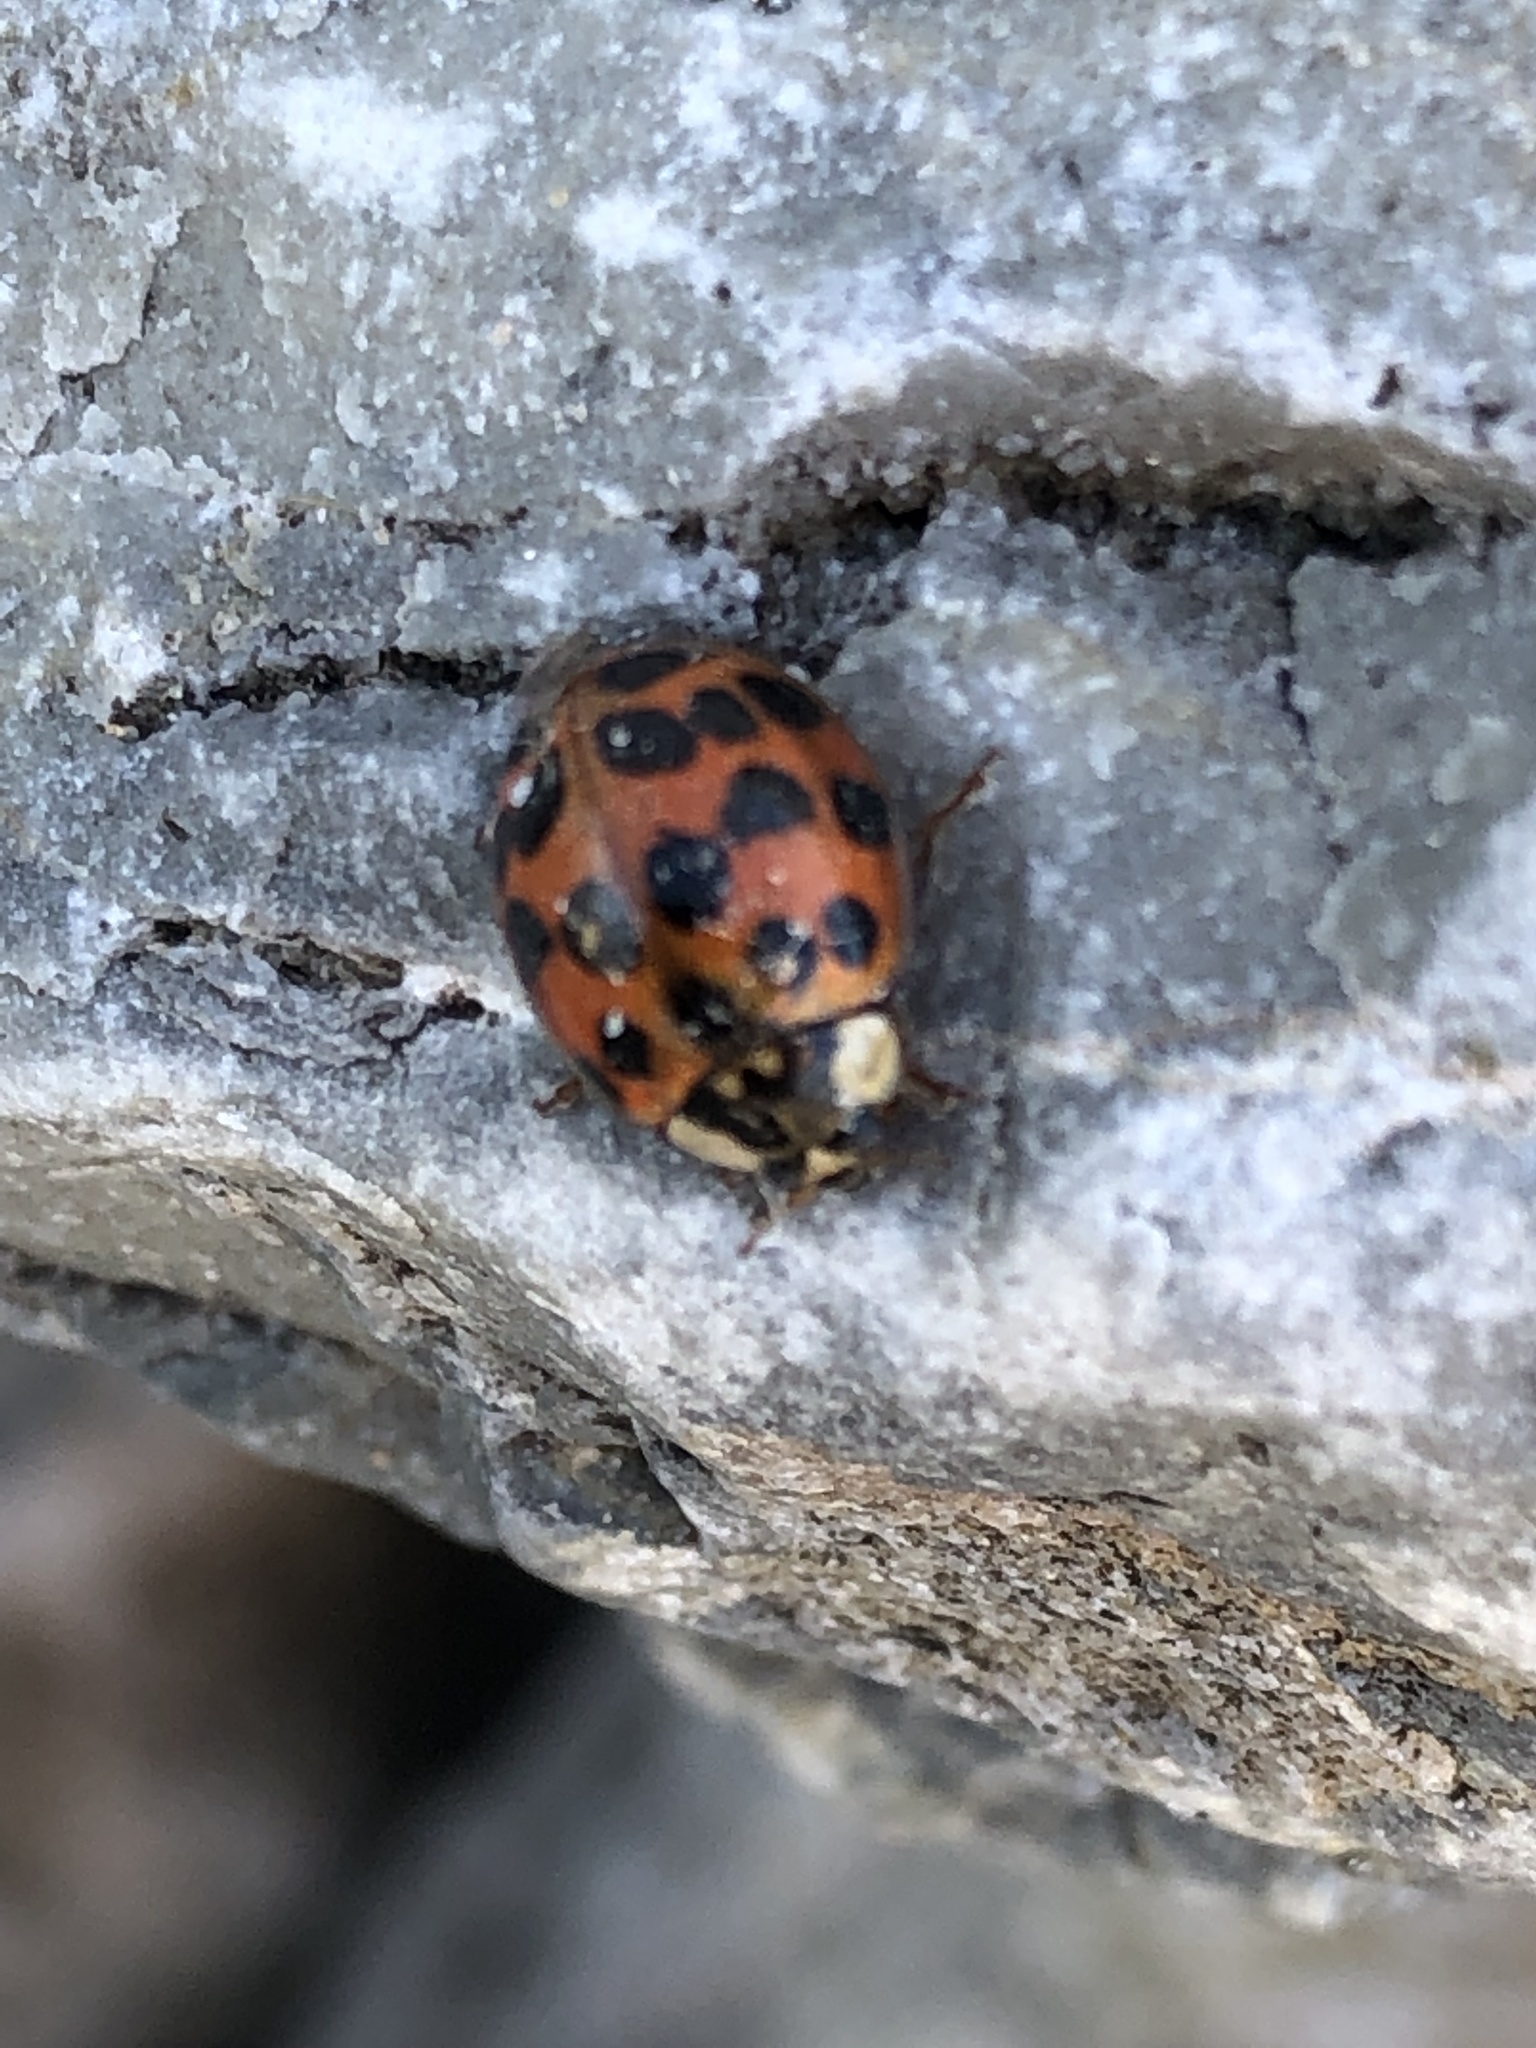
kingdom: Animalia
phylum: Arthropoda
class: Insecta
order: Coleoptera
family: Coccinellidae
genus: Harmonia
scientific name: Harmonia axyridis
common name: Harlequin ladybird
